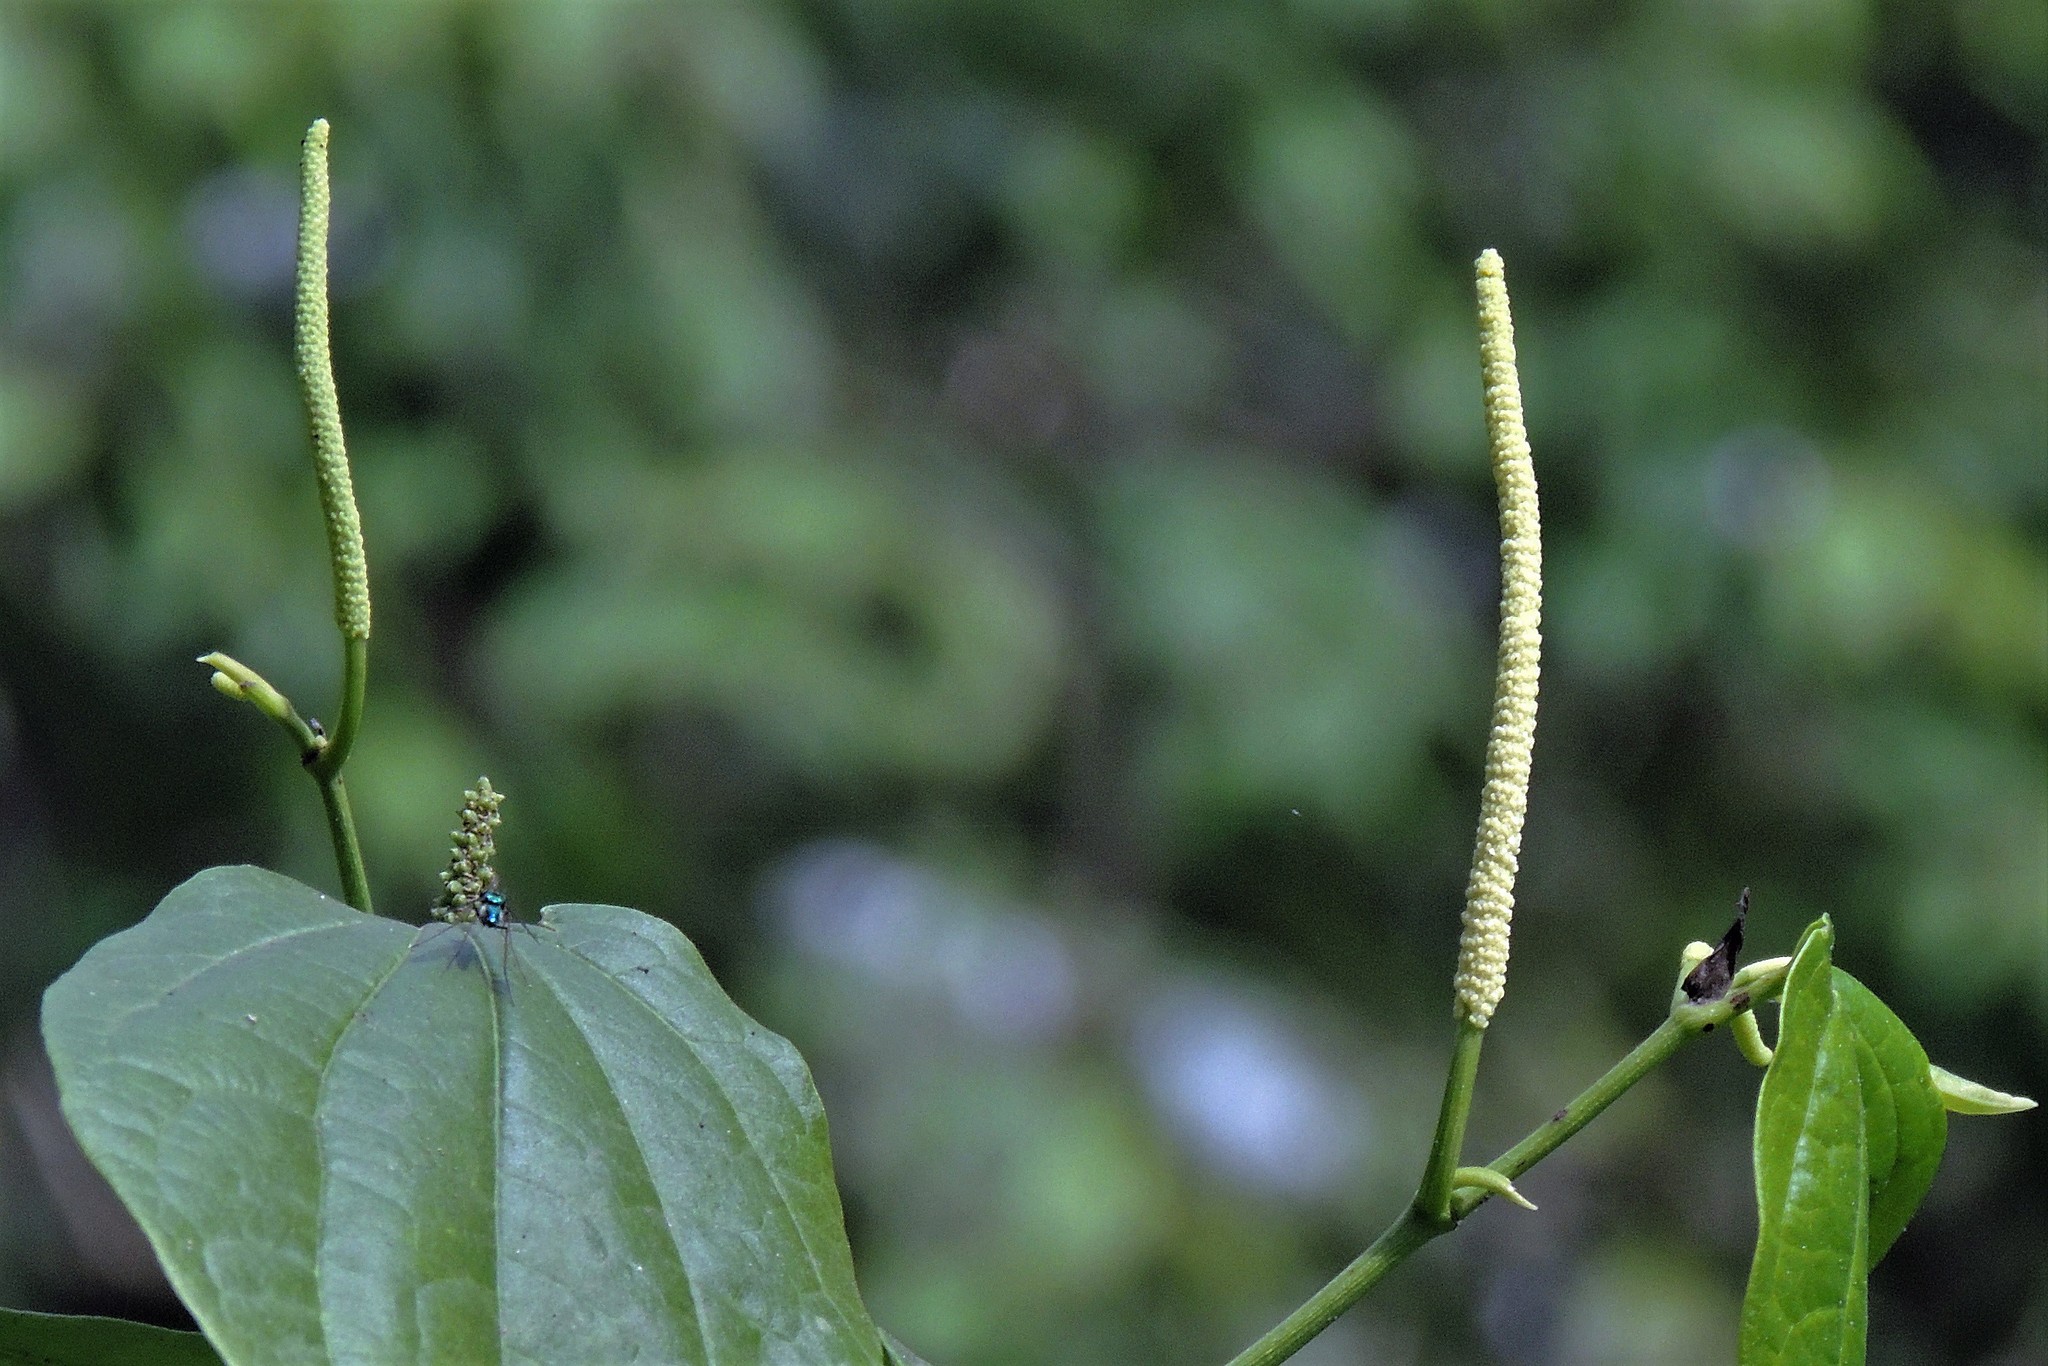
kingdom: Plantae
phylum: Tracheophyta
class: Magnoliopsida
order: Piperales
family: Piperaceae
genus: Piper
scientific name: Piper amalago
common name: Pepper-elder
